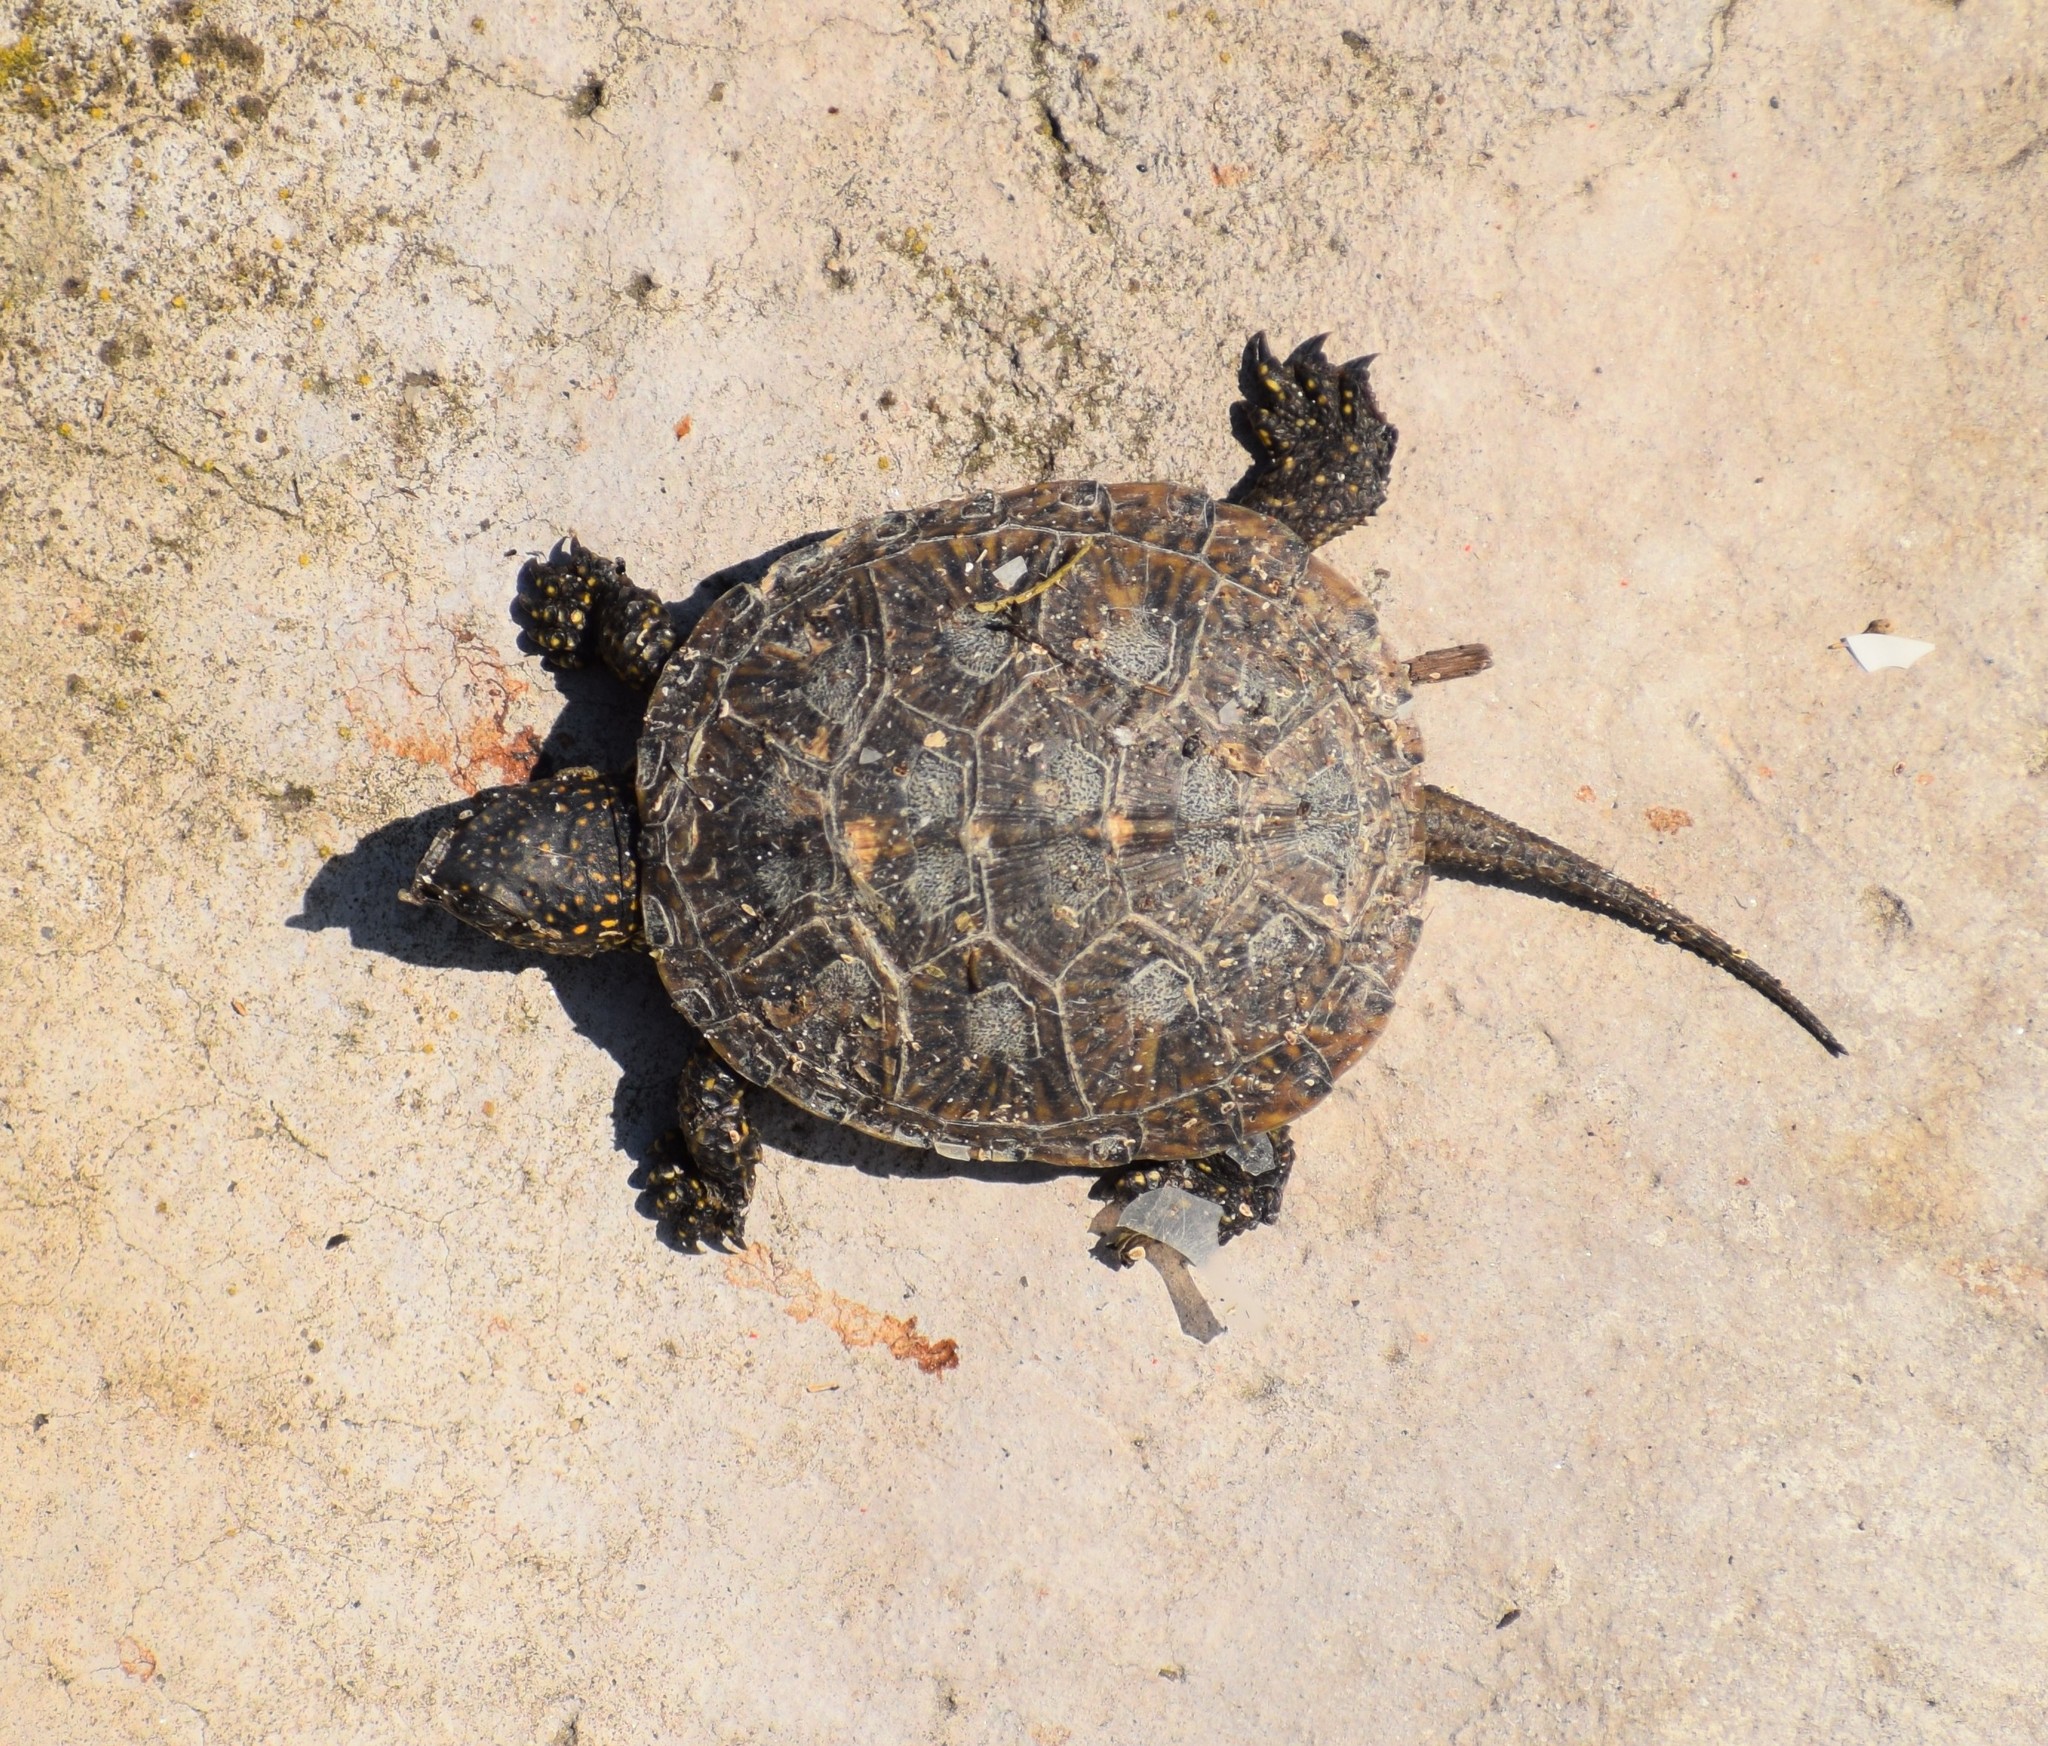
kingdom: Animalia
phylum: Chordata
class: Testudines
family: Emydidae
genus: Emys
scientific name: Emys orbicularis
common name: European pond turtle
